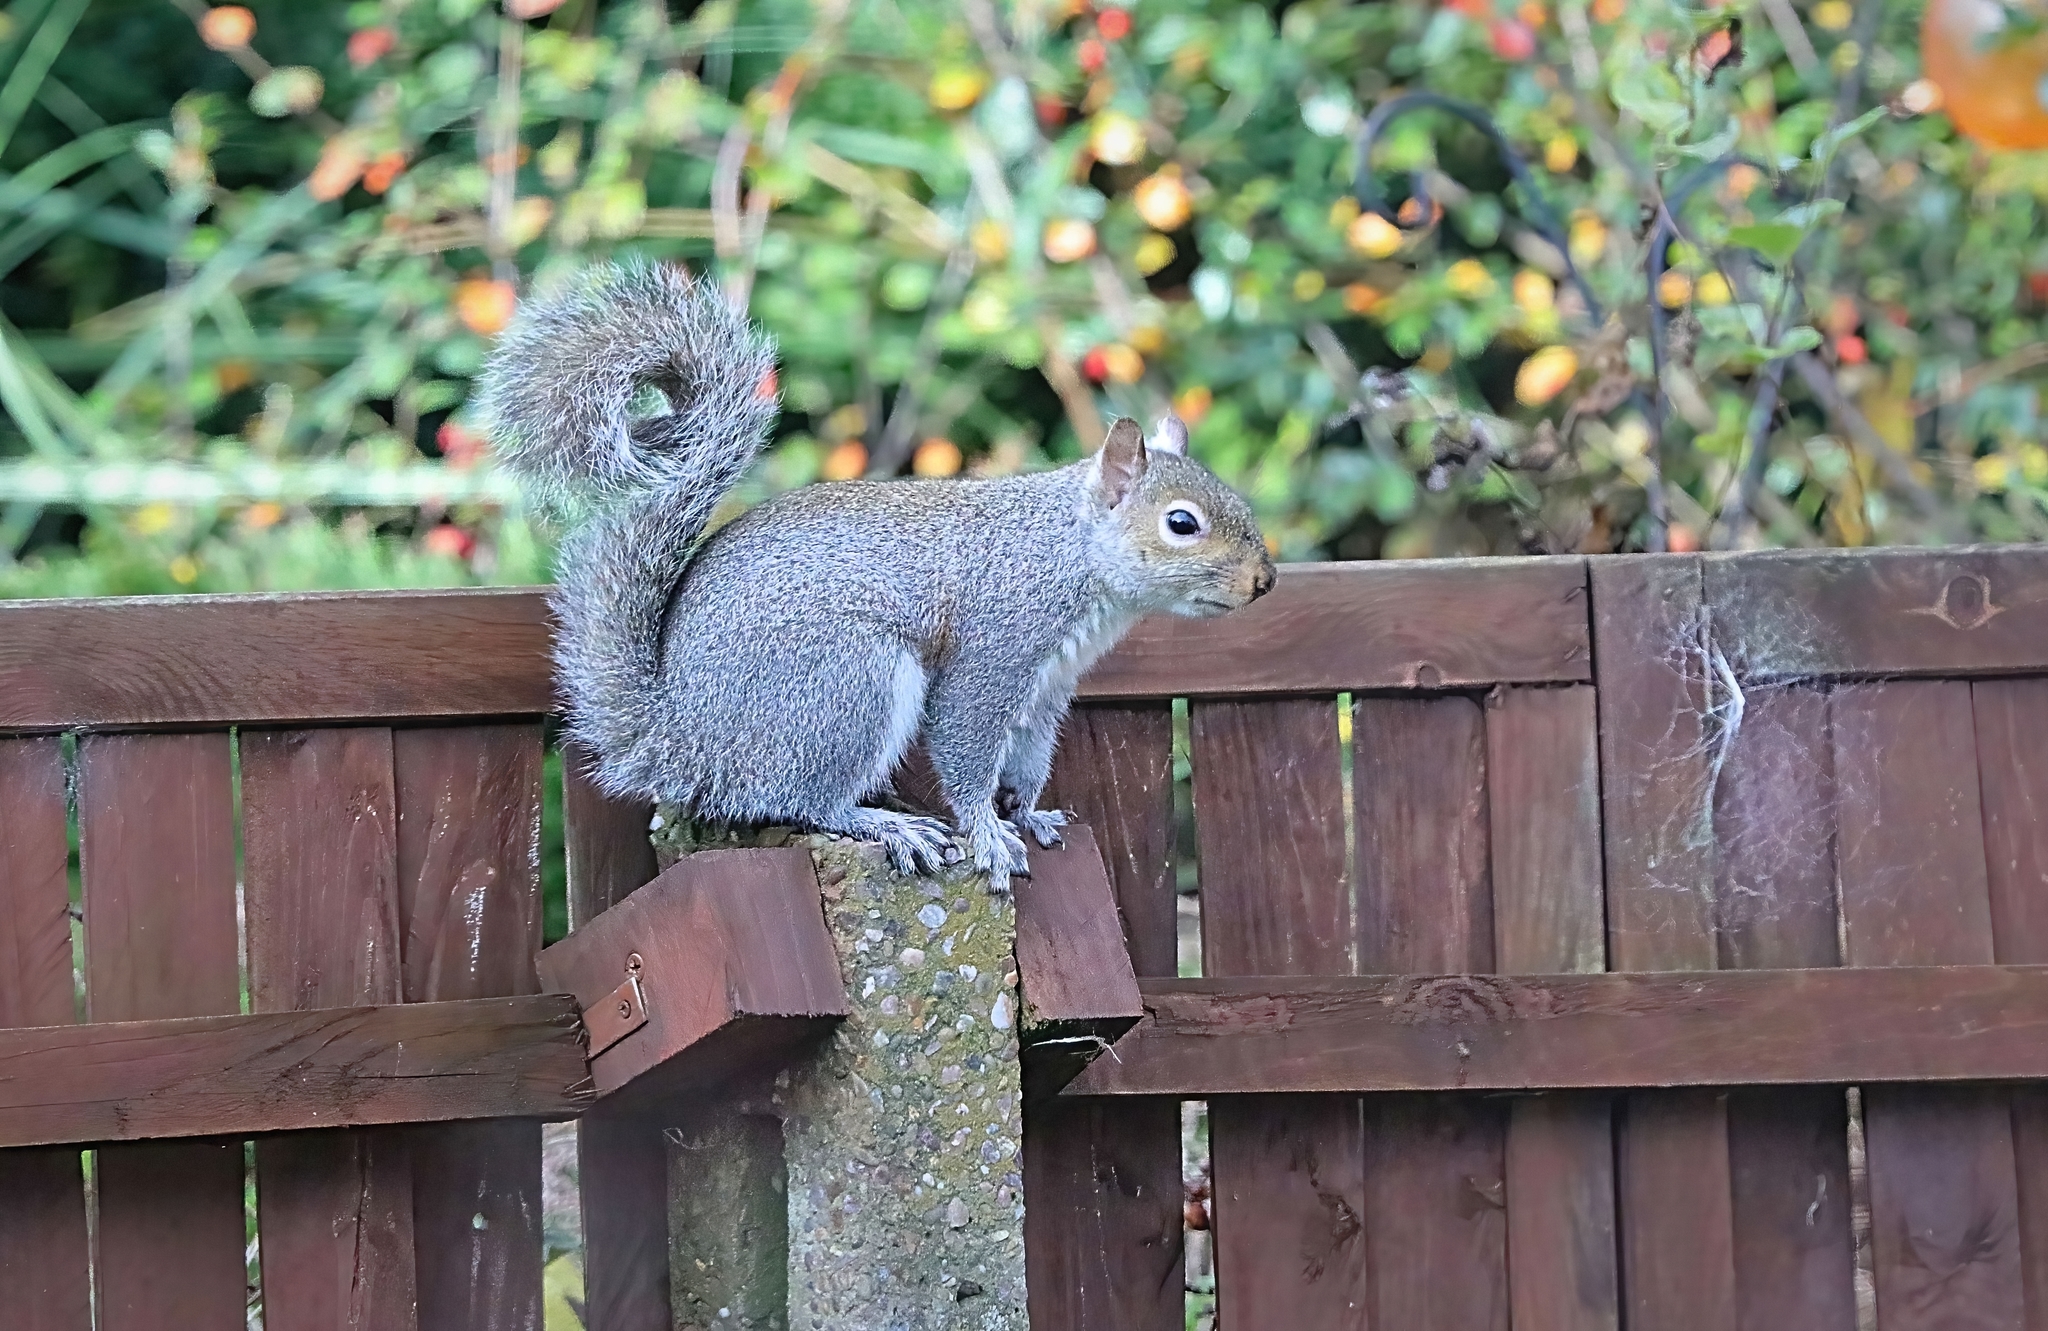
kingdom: Animalia
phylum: Chordata
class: Mammalia
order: Rodentia
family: Sciuridae
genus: Sciurus
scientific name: Sciurus carolinensis
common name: Eastern gray squirrel
